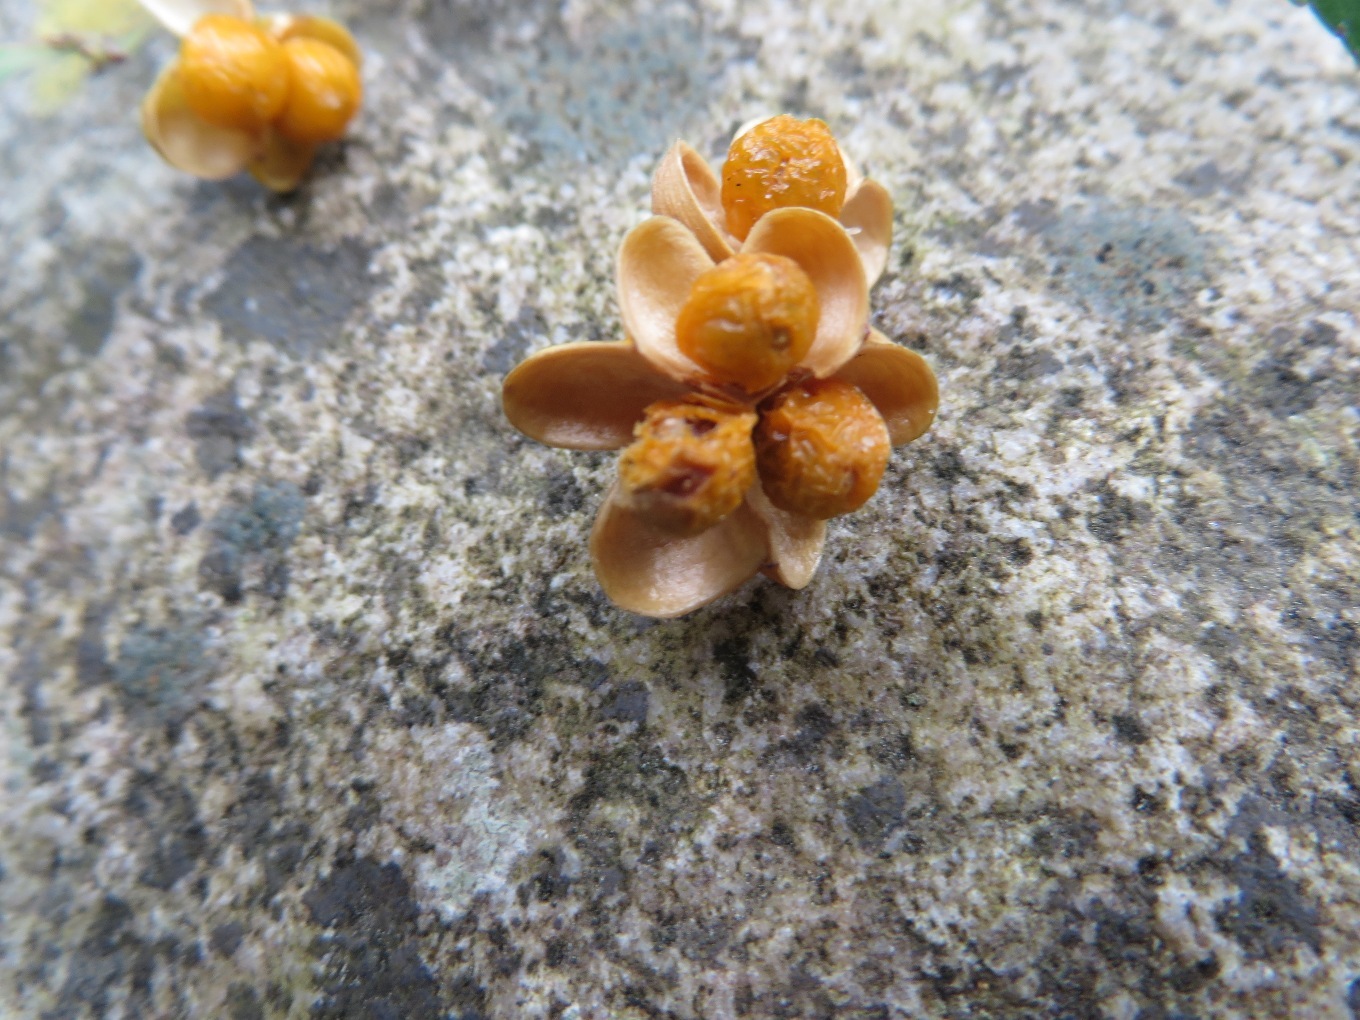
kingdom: Plantae
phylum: Tracheophyta
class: Magnoliopsida
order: Celastrales
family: Celastraceae
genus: Gymnosporia
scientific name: Gymnosporia acuminata
